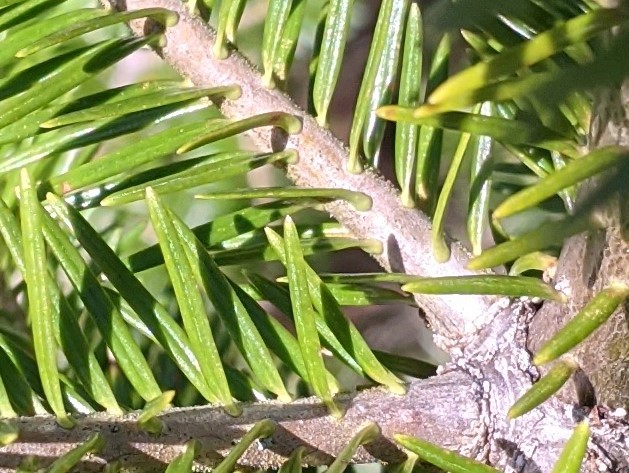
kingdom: Plantae
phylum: Tracheophyta
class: Pinopsida
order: Pinales
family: Pinaceae
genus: Abies
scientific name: Abies balsamea
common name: Balsam fir
